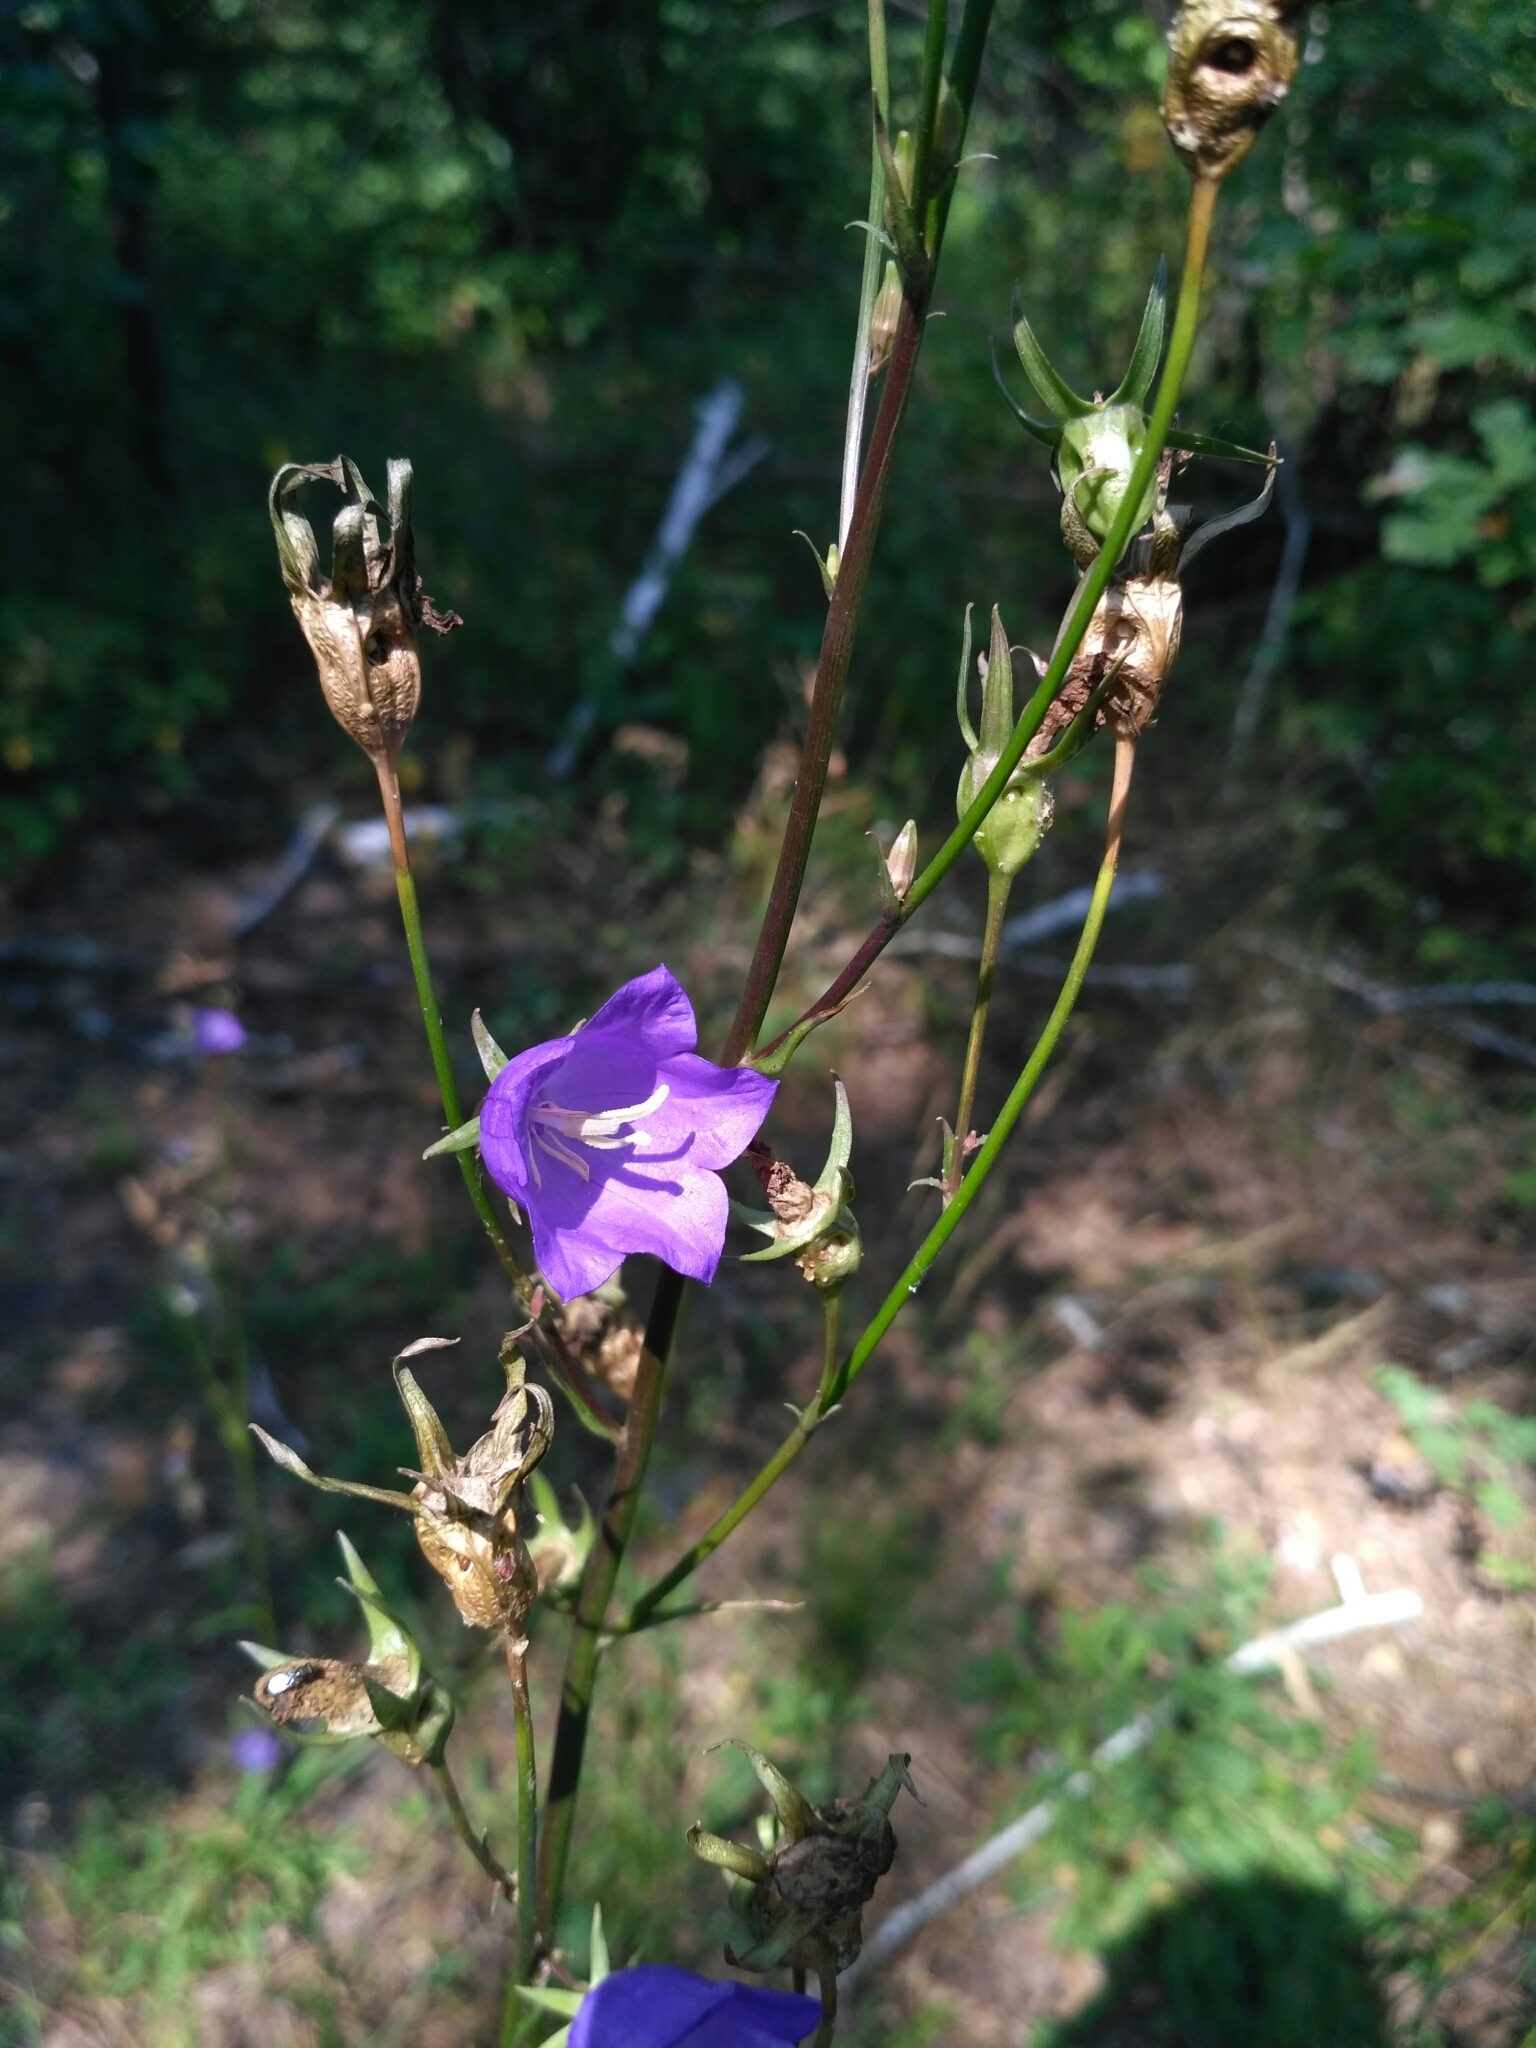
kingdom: Plantae
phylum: Tracheophyta
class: Magnoliopsida
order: Asterales
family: Campanulaceae
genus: Campanula
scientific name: Campanula persicifolia
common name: Peach-leaved bellflower
